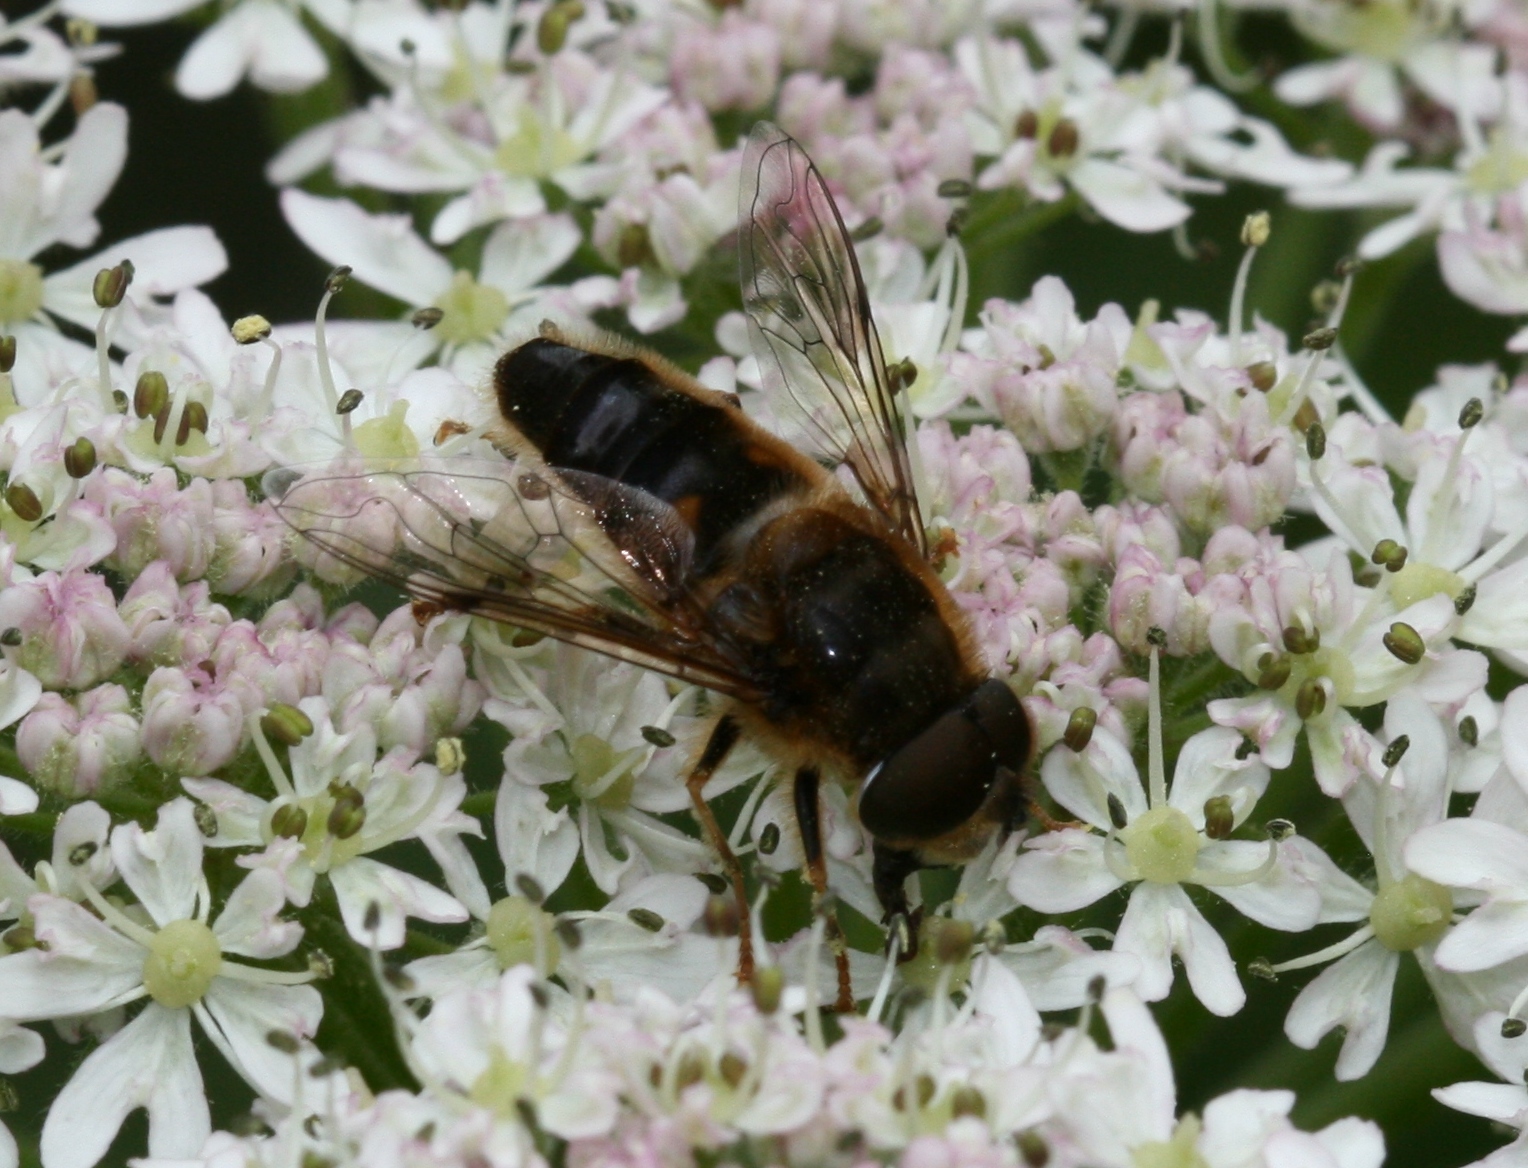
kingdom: Animalia
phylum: Arthropoda
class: Insecta
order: Diptera
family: Syrphidae
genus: Eristalis
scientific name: Eristalis pertinax
